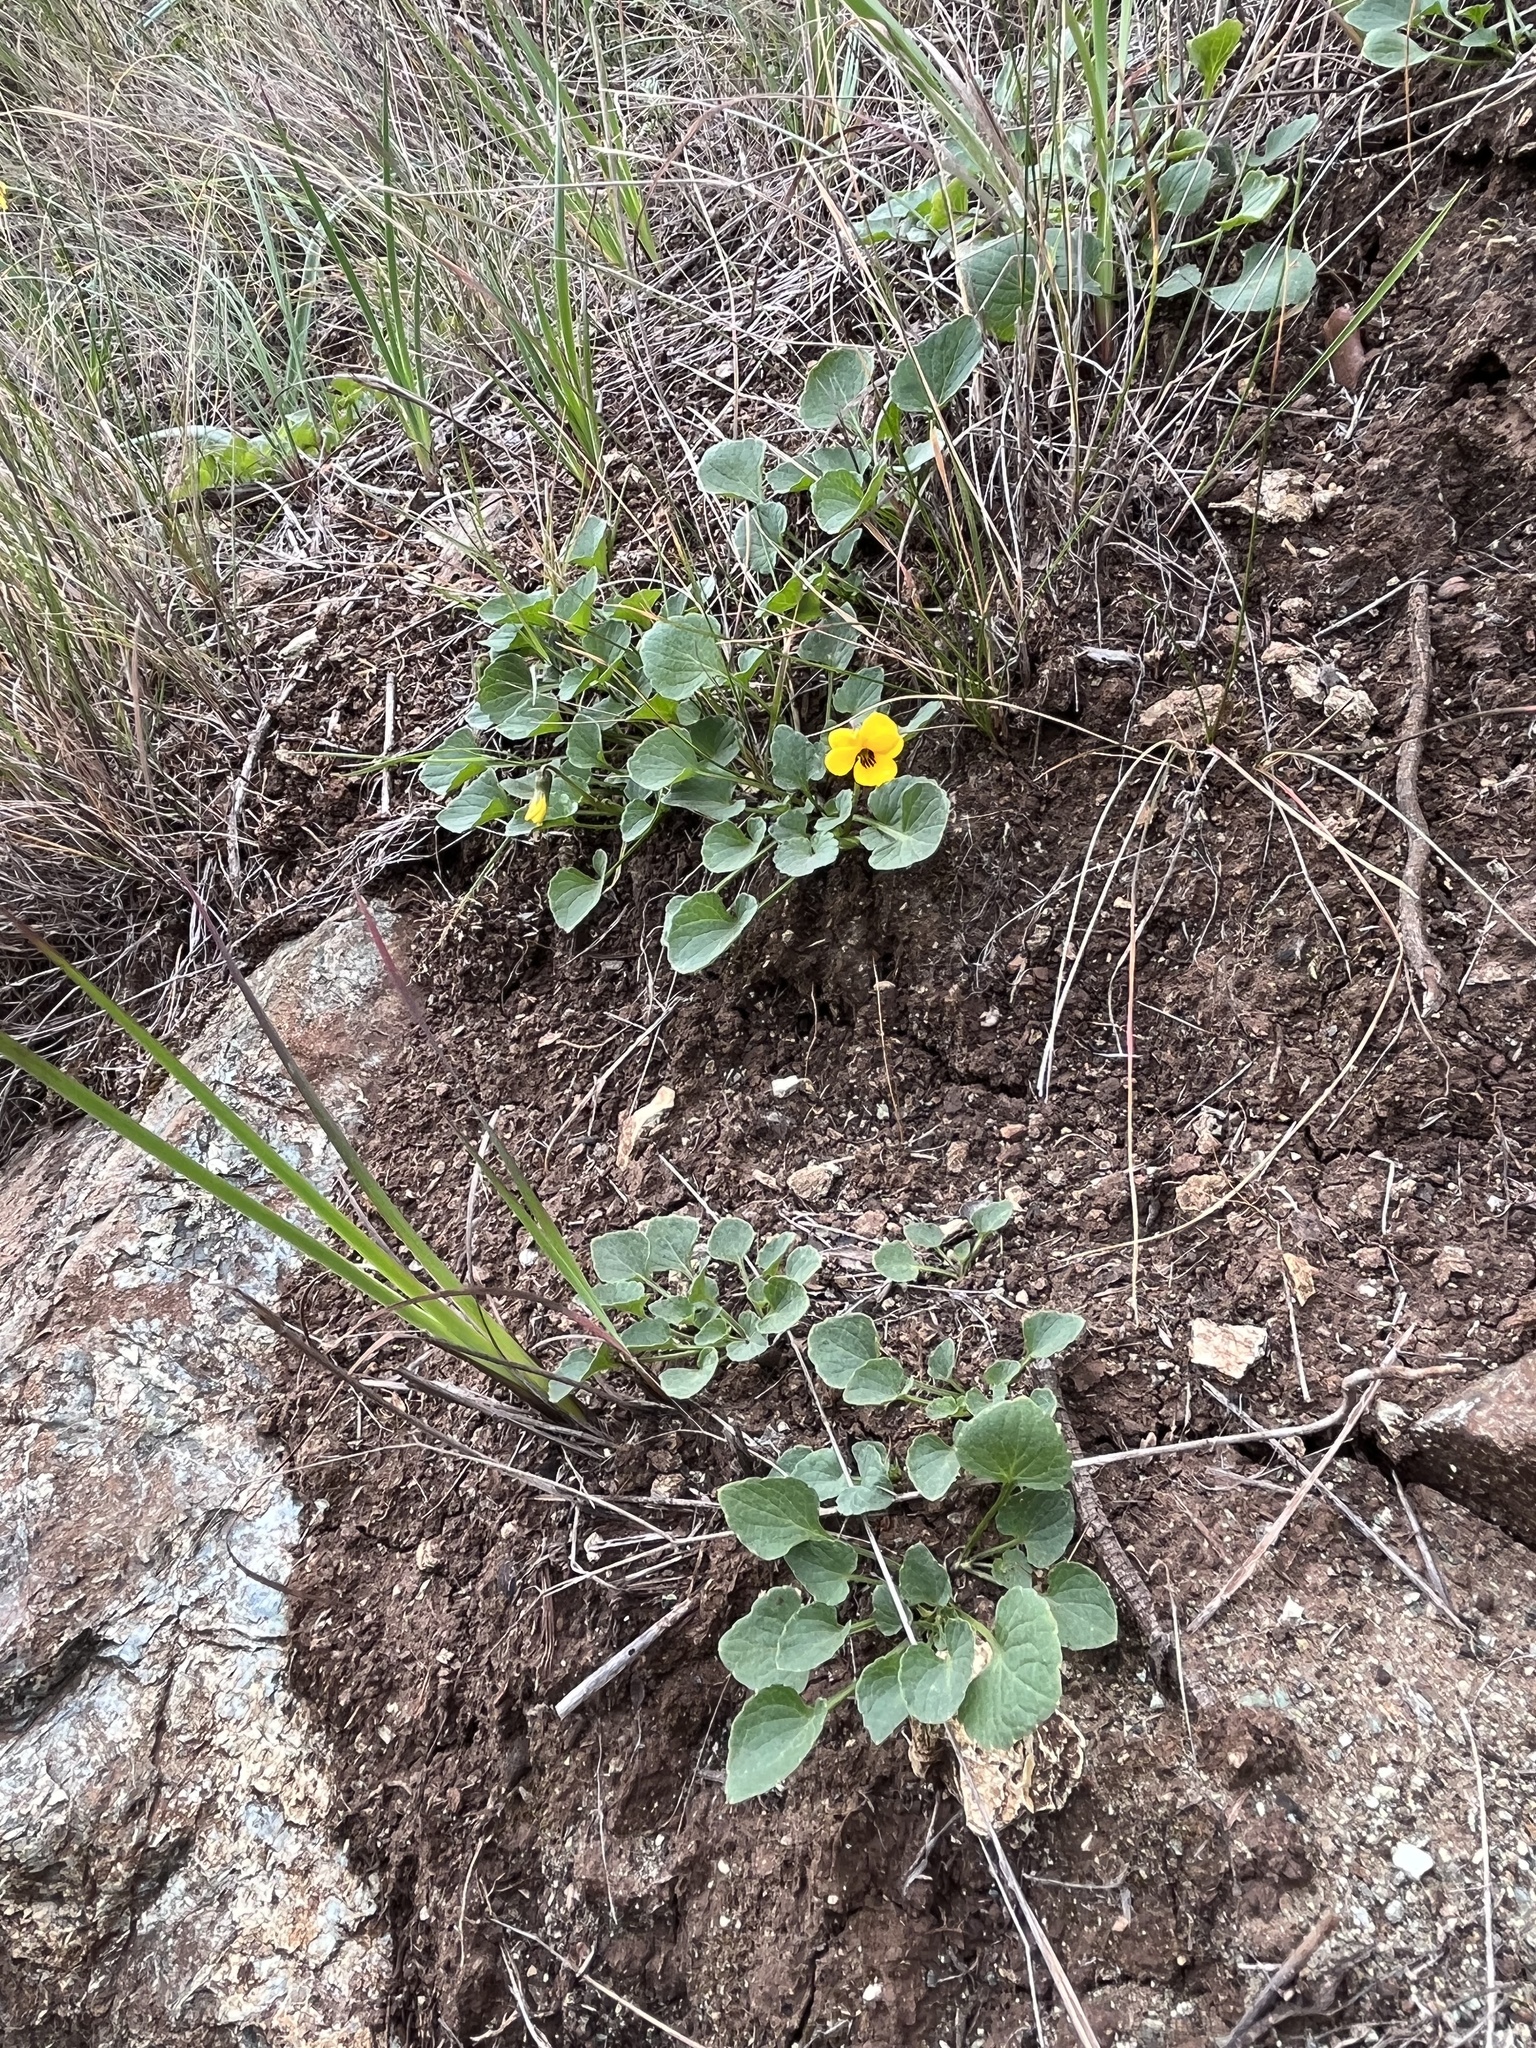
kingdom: Plantae
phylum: Tracheophyta
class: Magnoliopsida
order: Malpighiales
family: Violaceae
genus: Viola
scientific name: Viola pedunculata
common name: California golden violet
